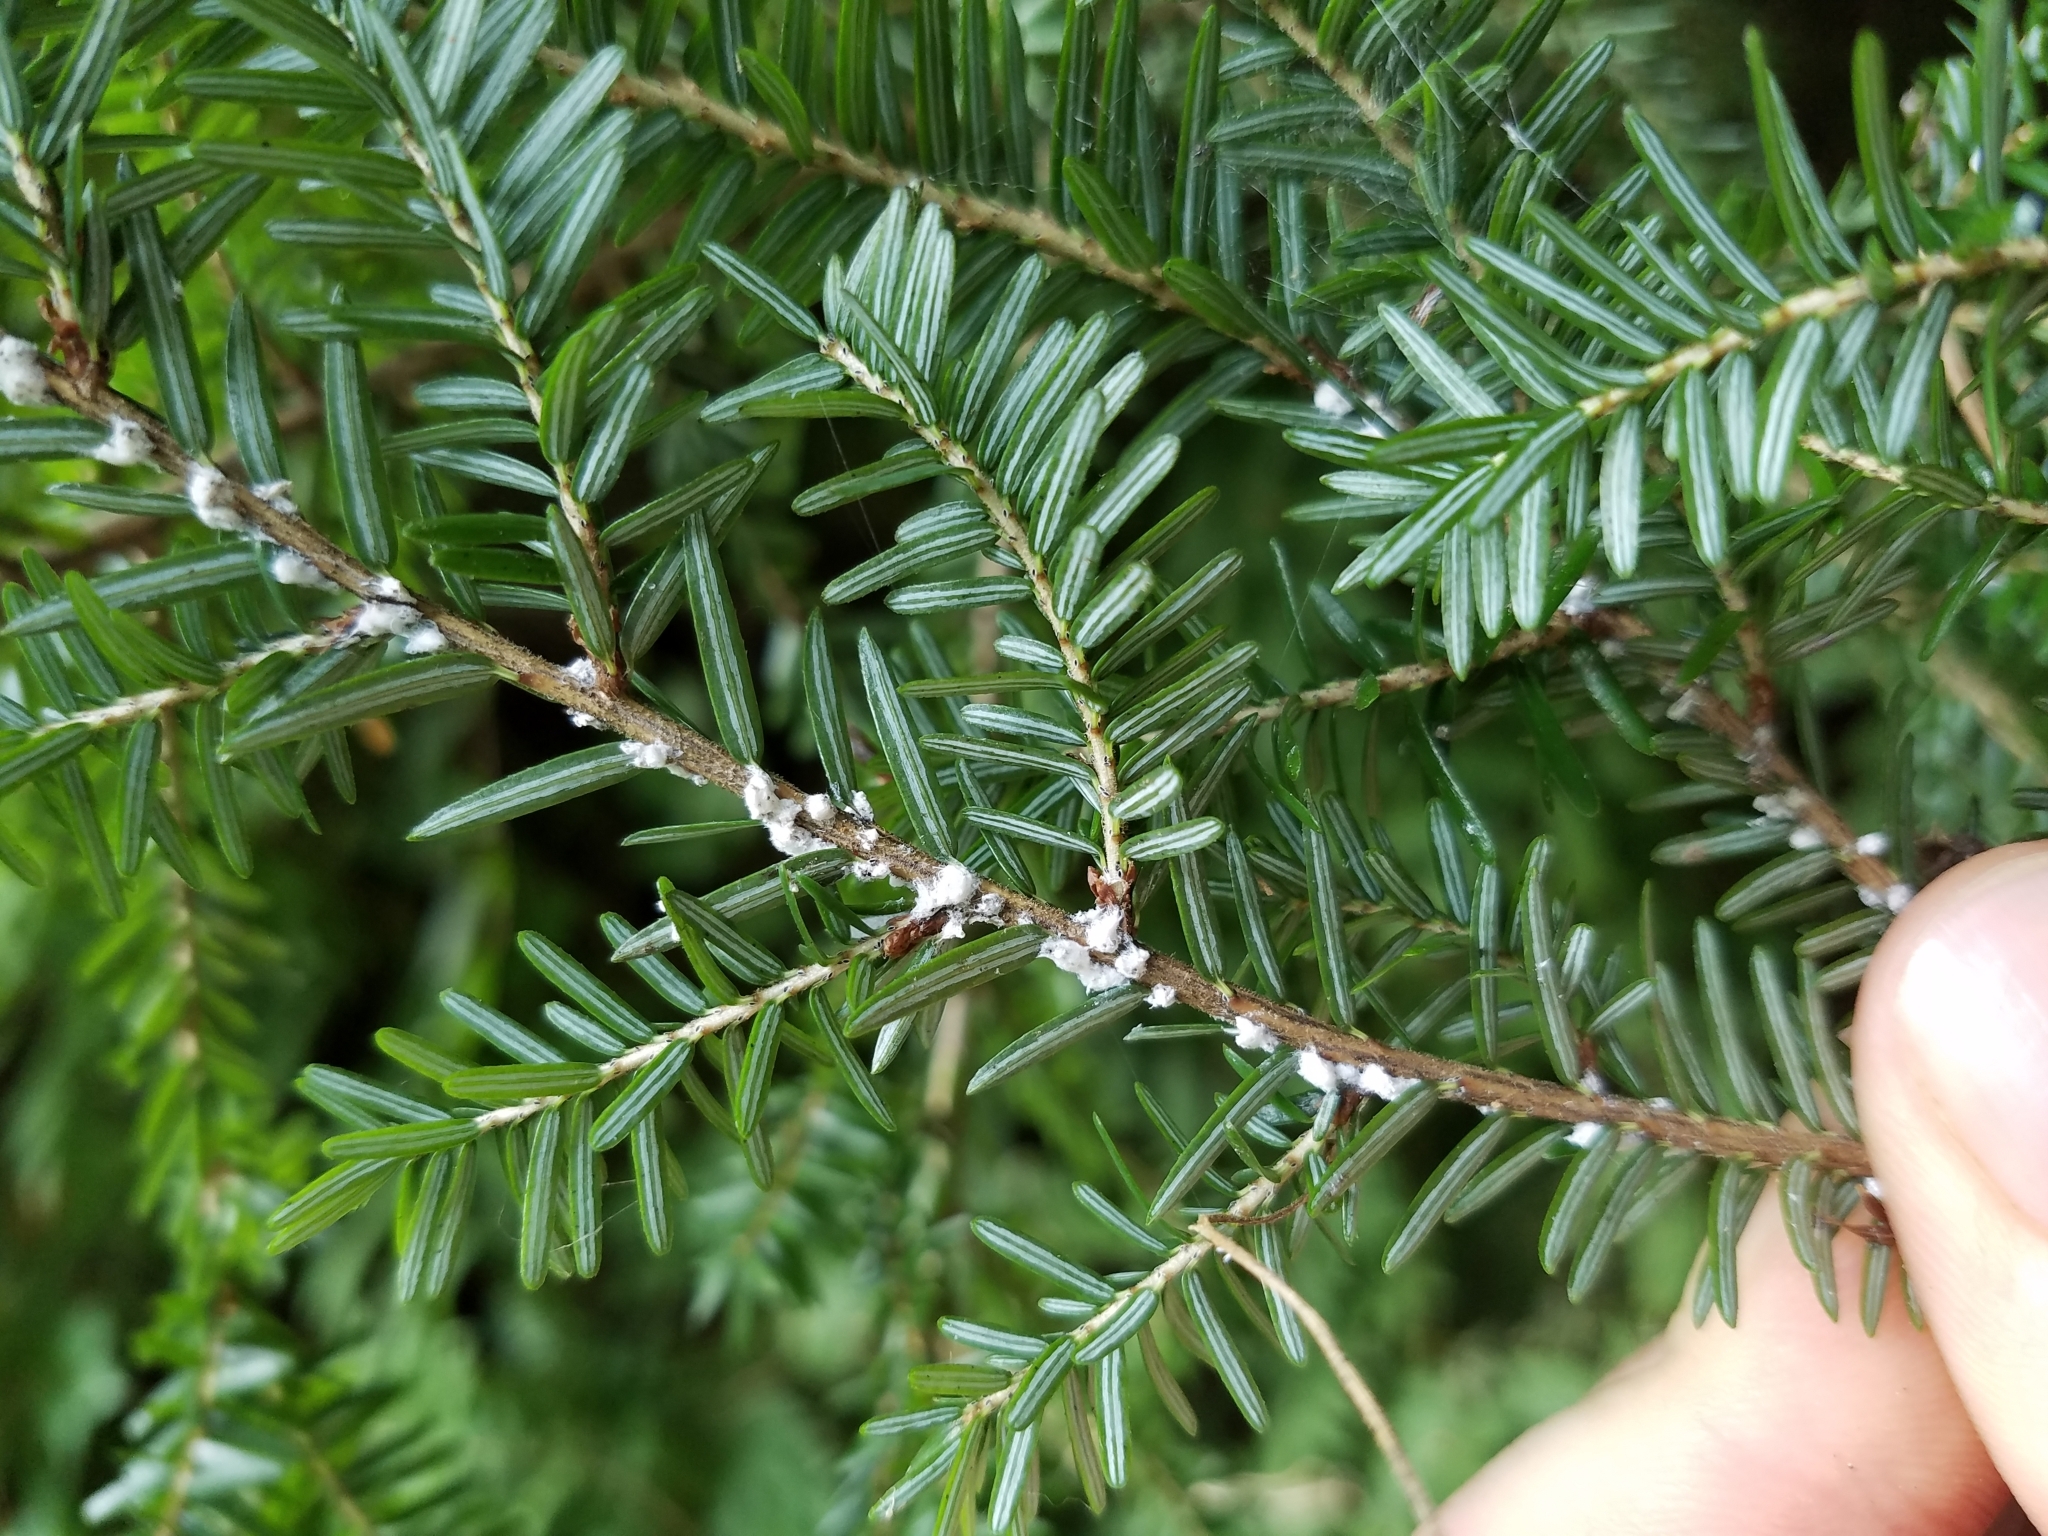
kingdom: Animalia
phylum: Arthropoda
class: Insecta
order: Hemiptera
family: Adelgidae
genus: Adelges
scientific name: Adelges tsugae
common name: Hemlock woolly adelgid
